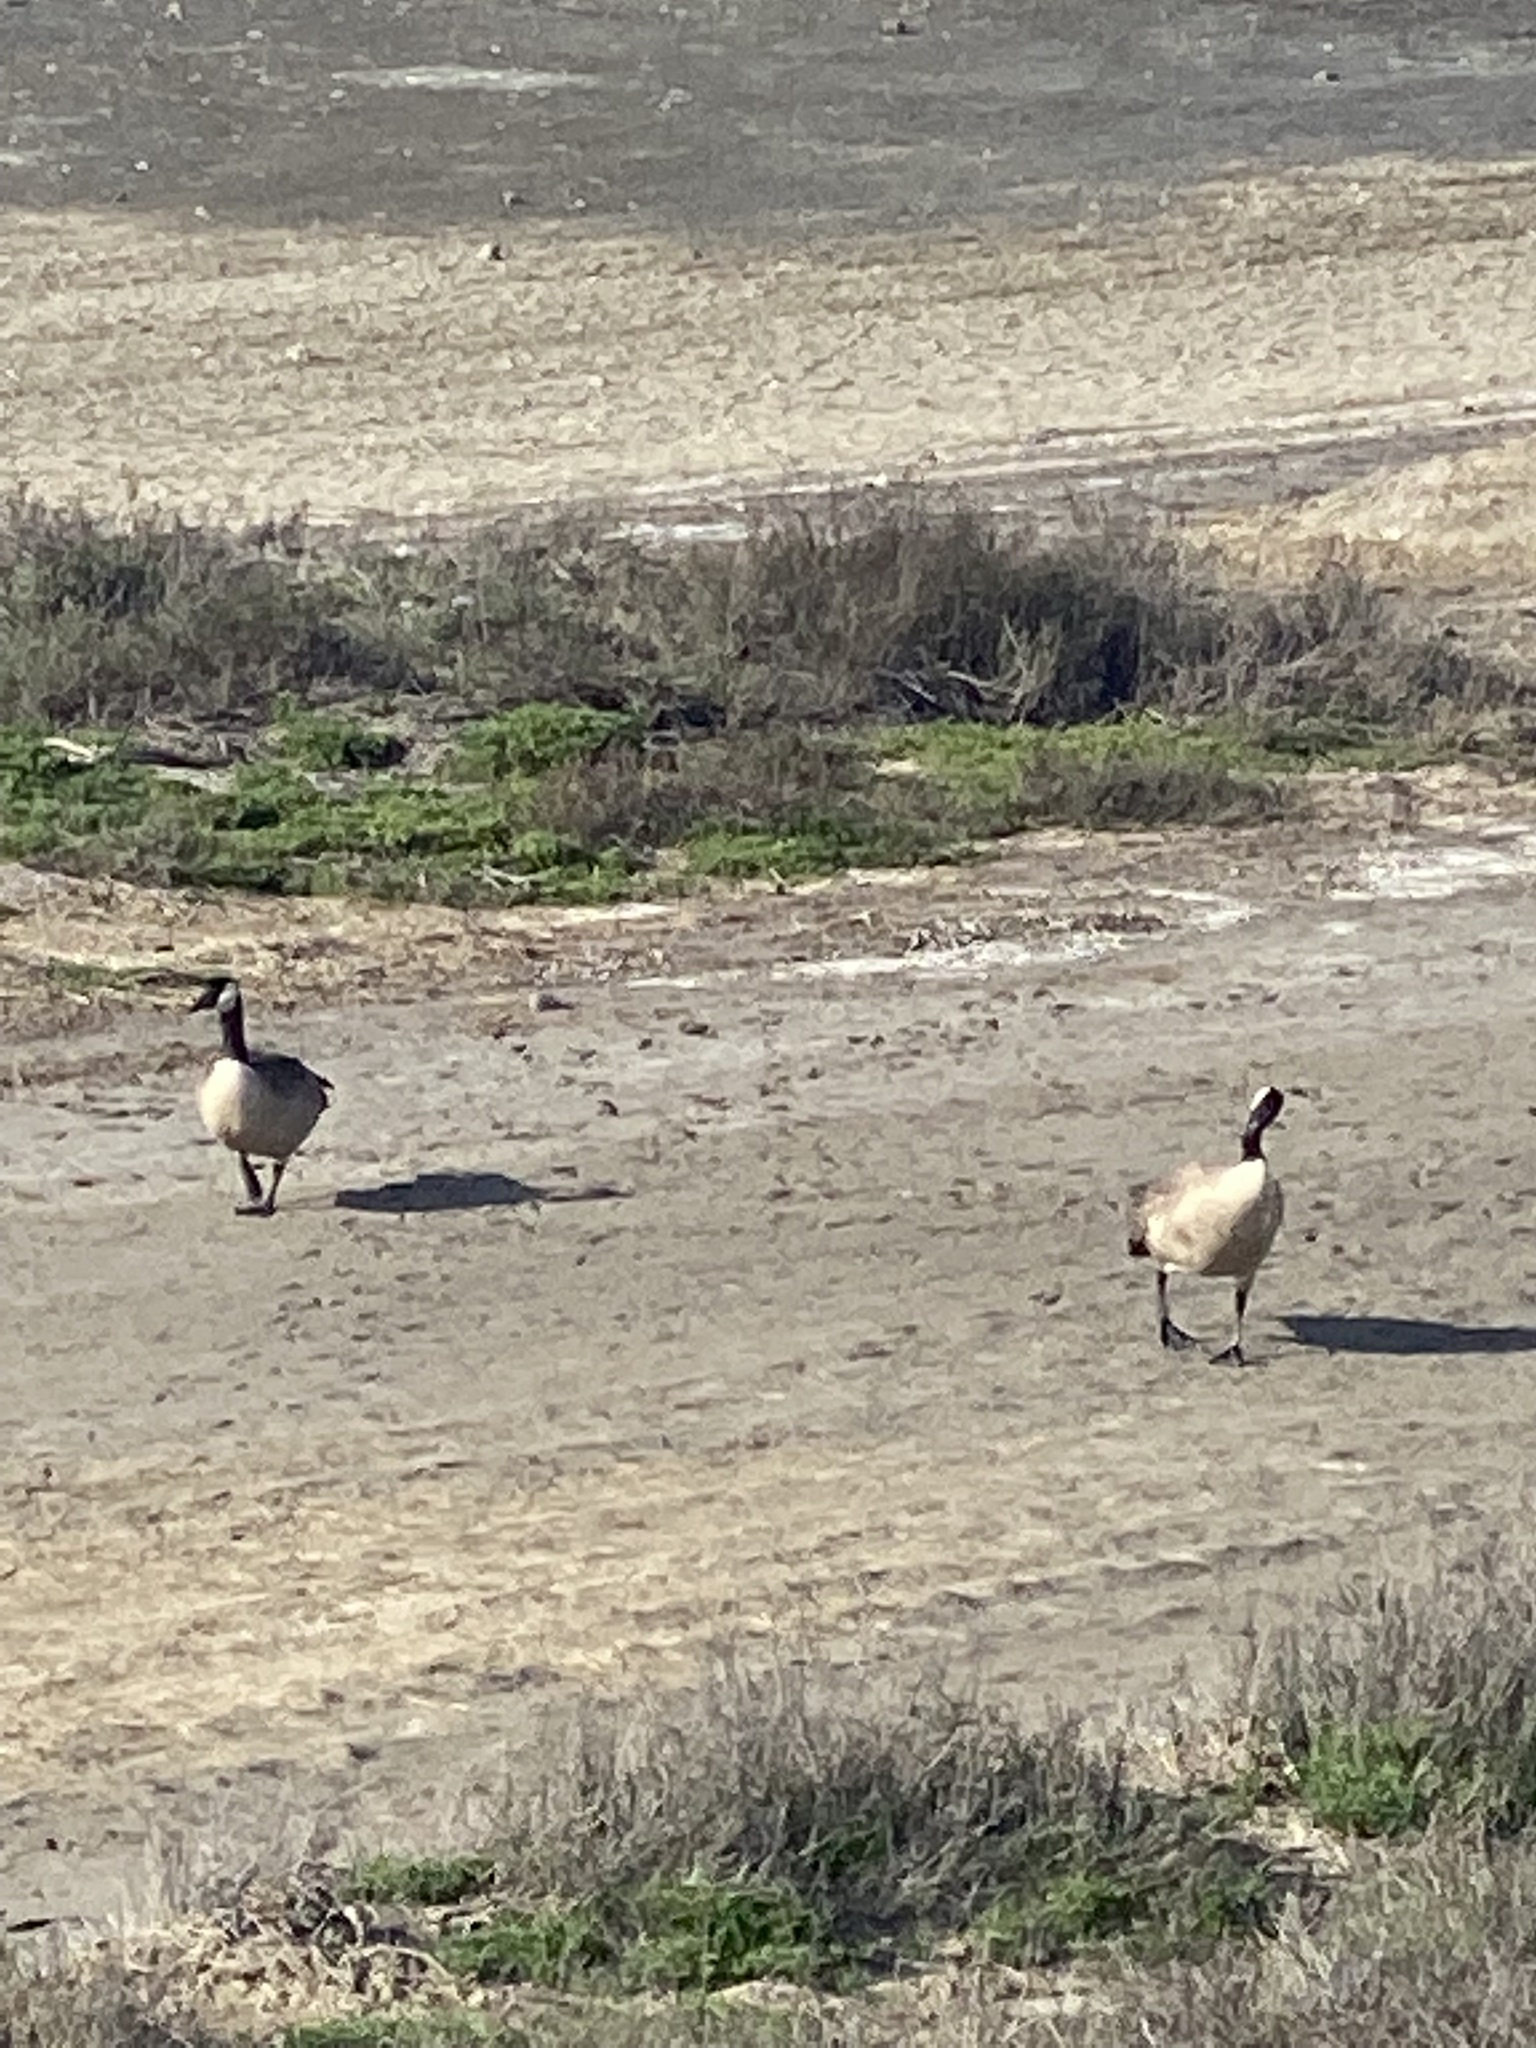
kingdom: Animalia
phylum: Chordata
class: Aves
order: Anseriformes
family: Anatidae
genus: Branta
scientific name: Branta canadensis
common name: Canada goose
